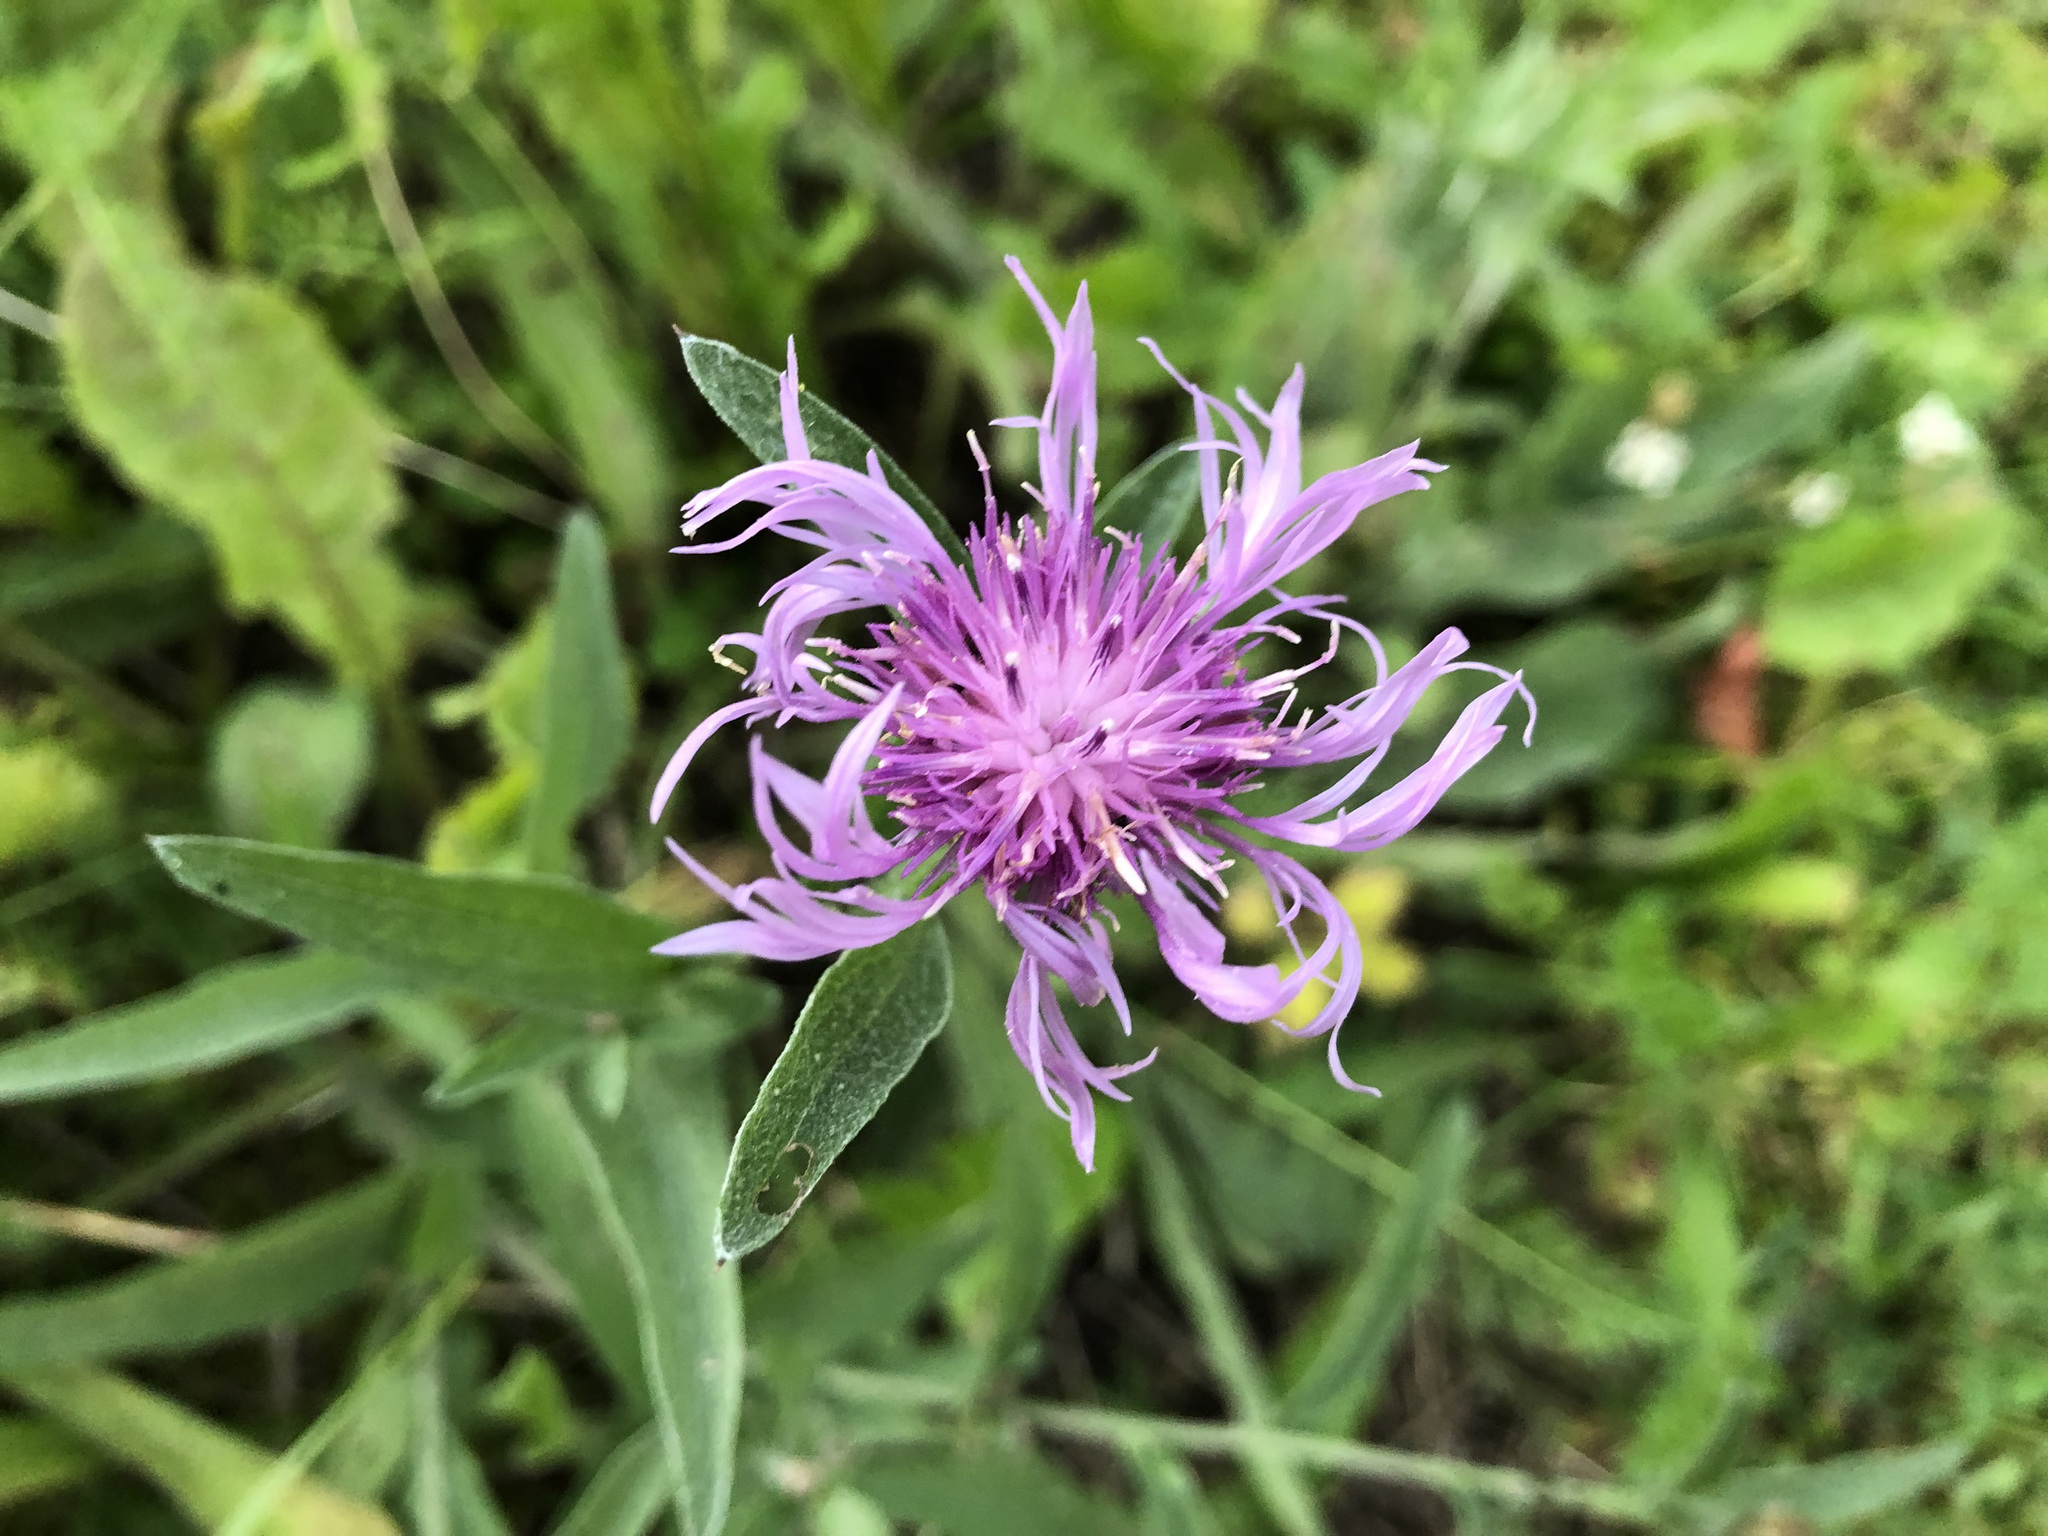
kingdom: Plantae
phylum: Tracheophyta
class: Magnoliopsida
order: Asterales
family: Asteraceae
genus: Centaurea
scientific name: Centaurea jacea
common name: Brown knapweed
